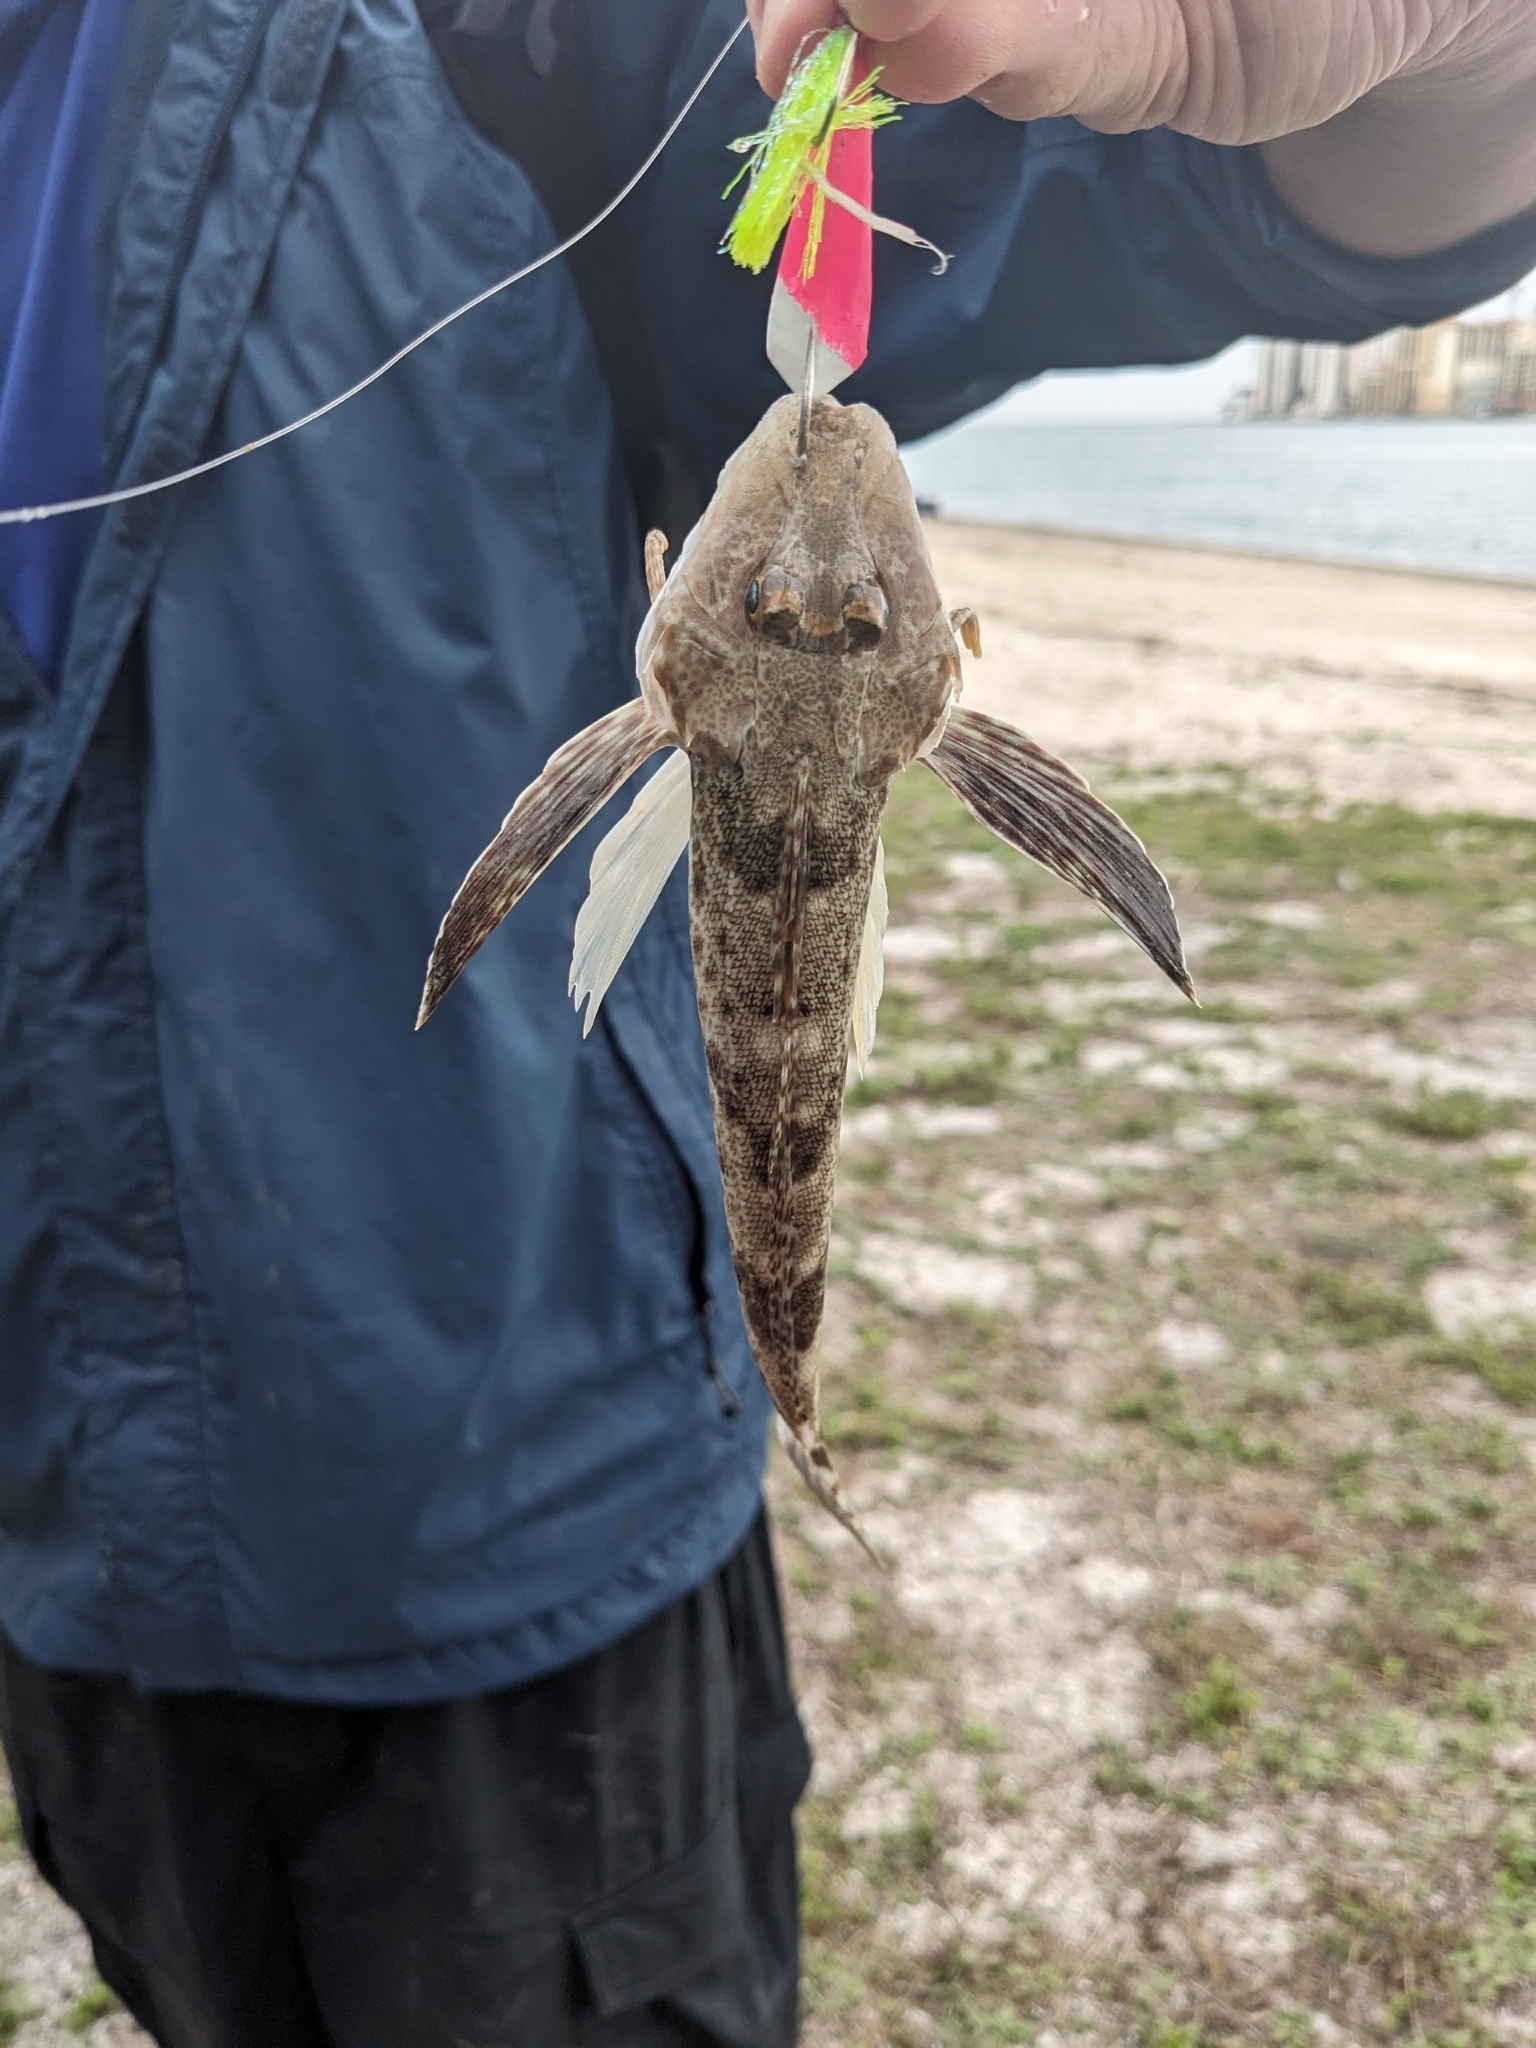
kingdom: Animalia
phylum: Chordata
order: Scorpaeniformes
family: Triglidae
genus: Prionotus
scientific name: Prionotus scitulus
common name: Leopard searobin
